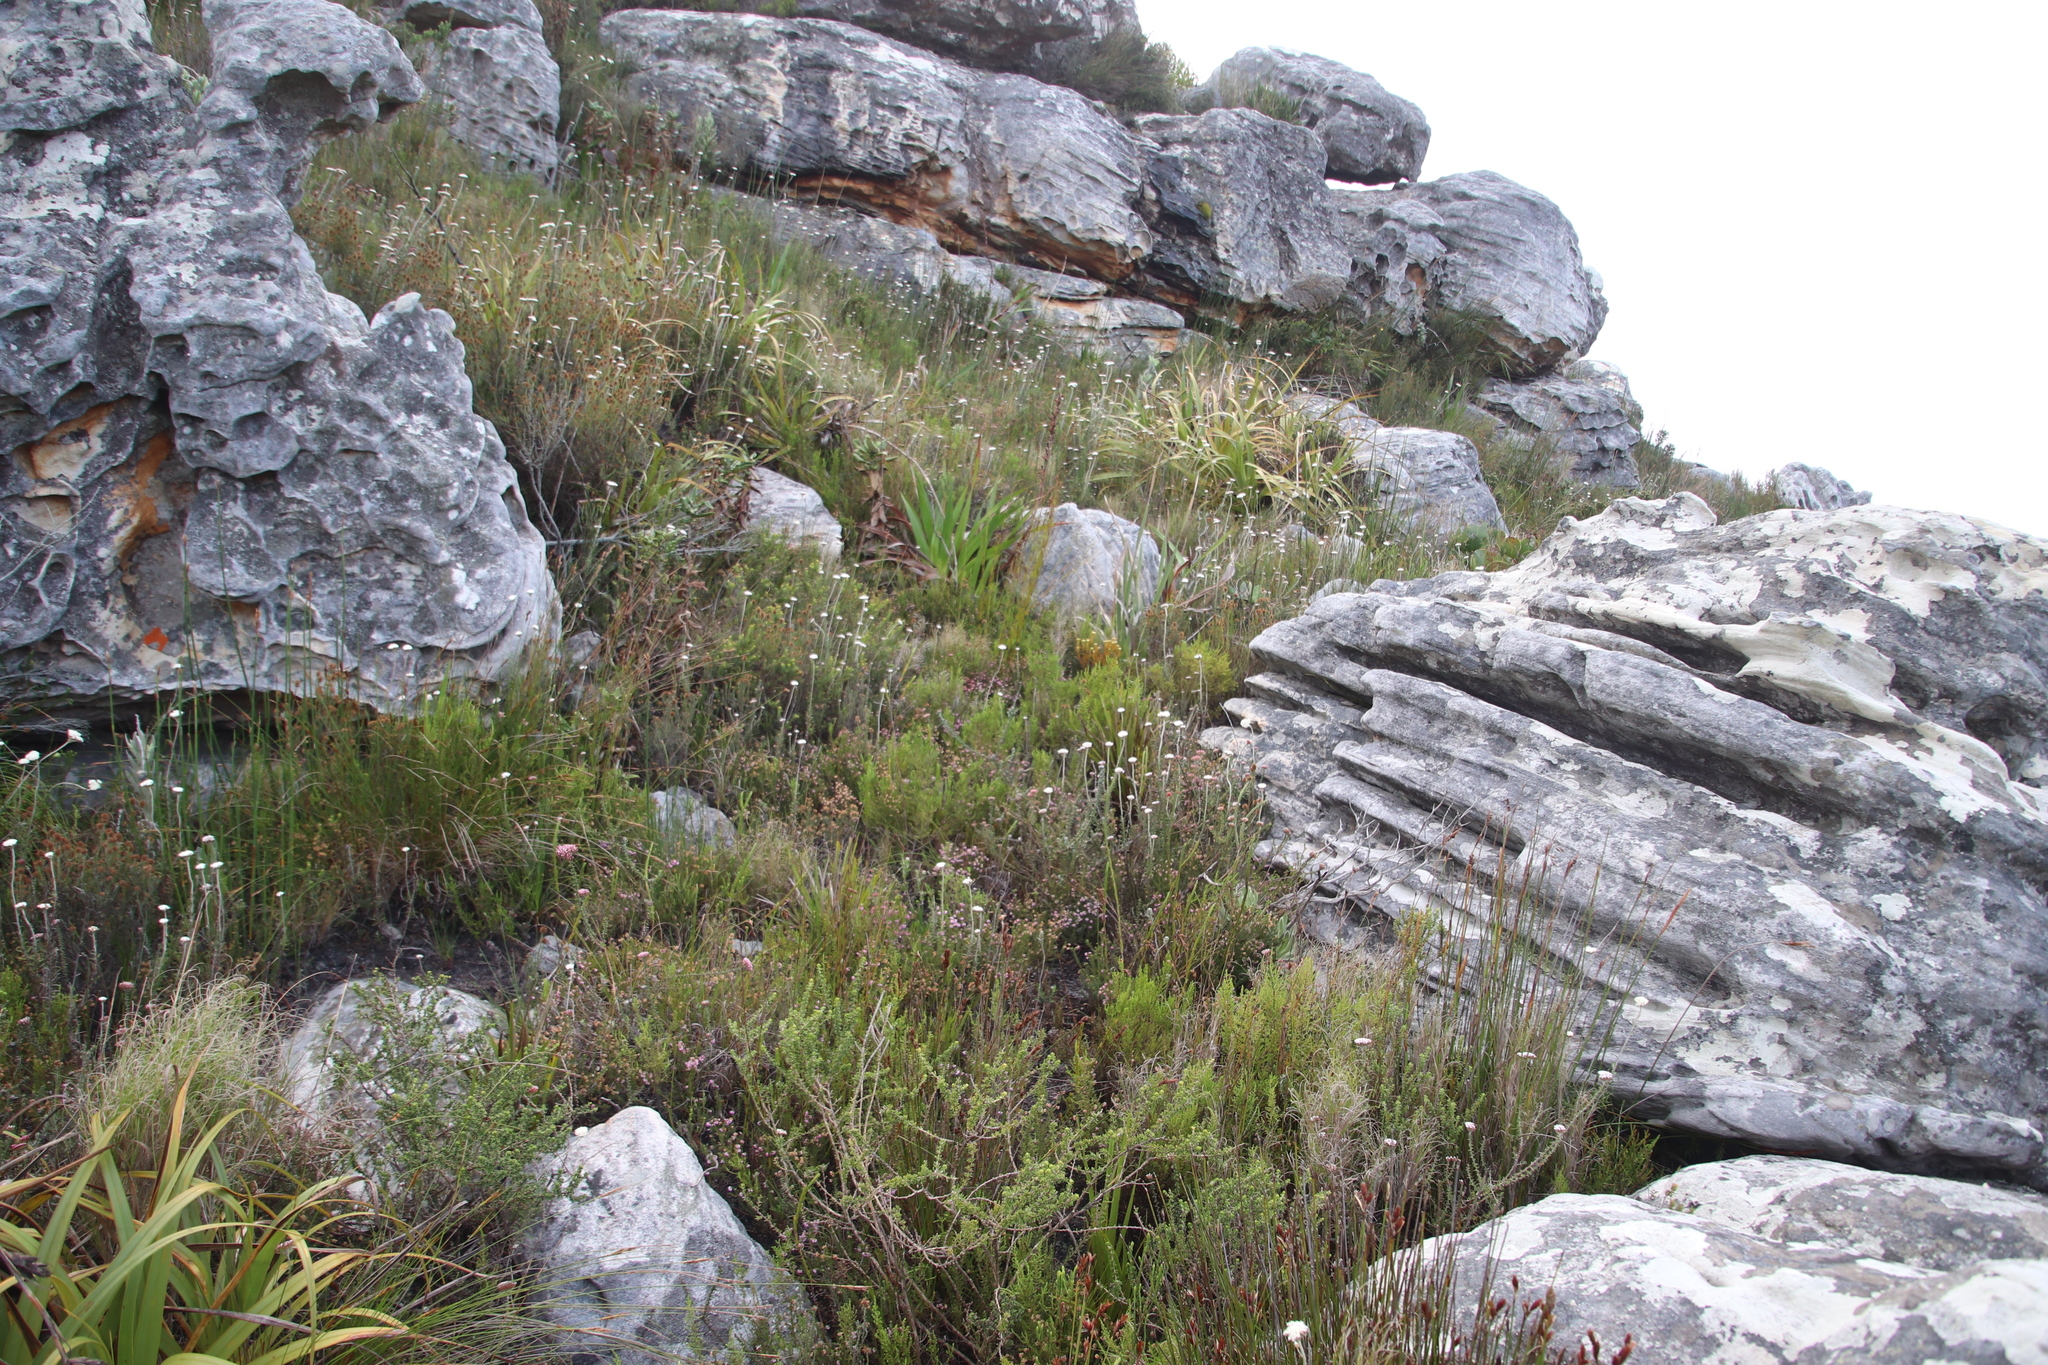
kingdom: Plantae
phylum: Tracheophyta
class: Magnoliopsida
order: Asterales
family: Asteraceae
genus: Anaxeton
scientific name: Anaxeton arborescens
